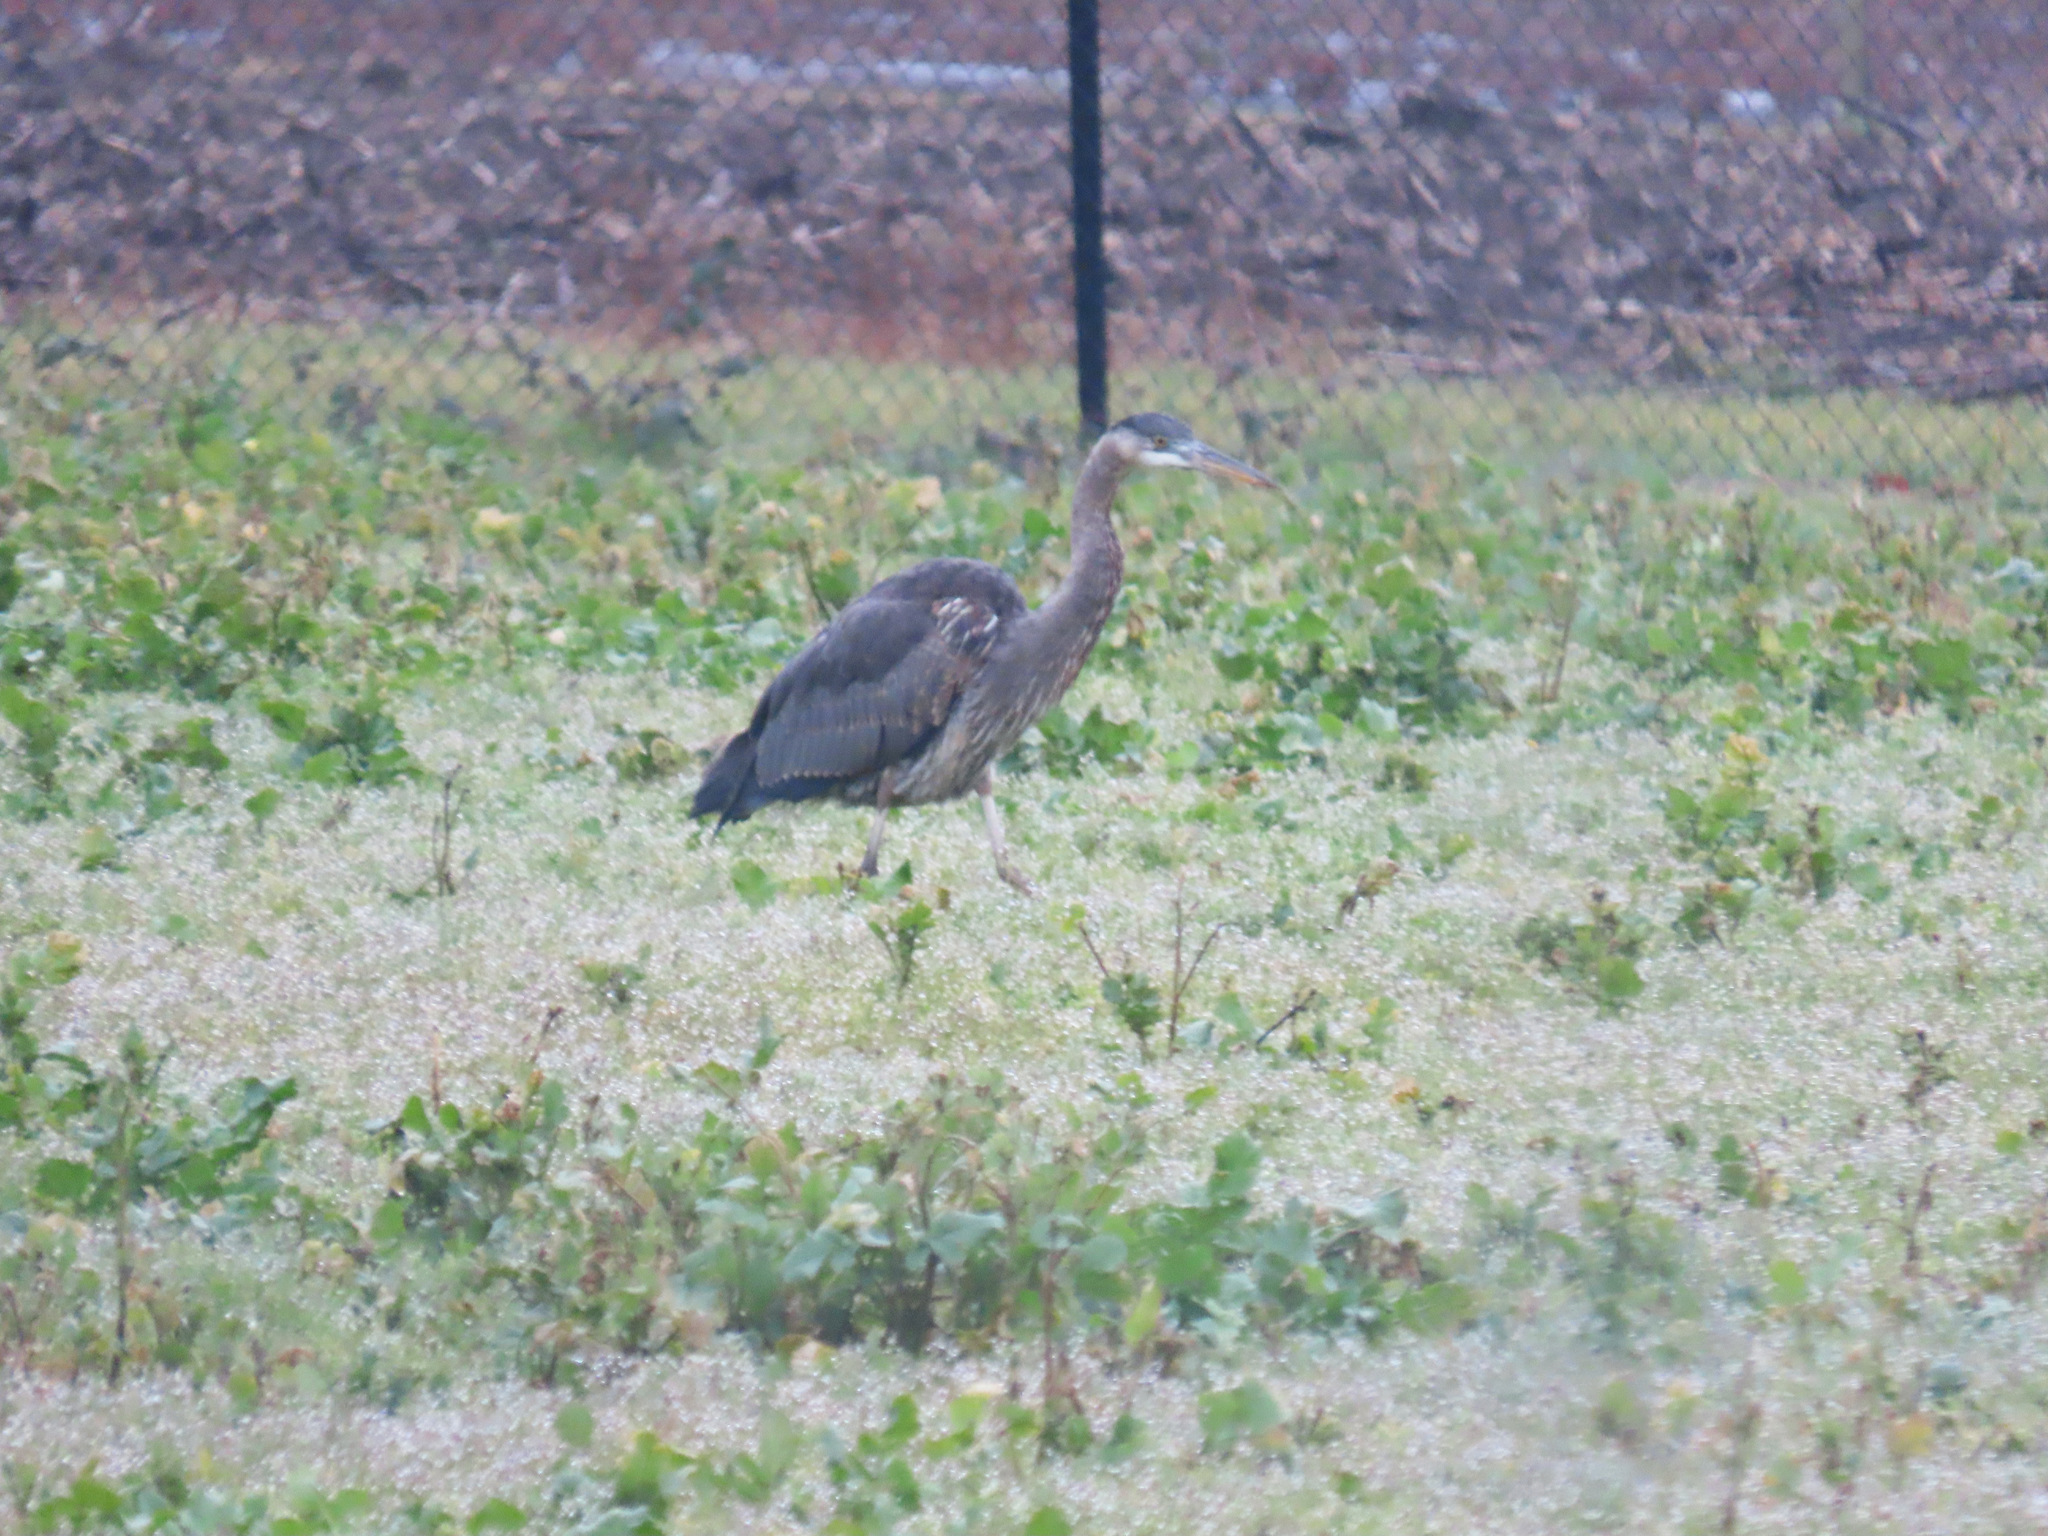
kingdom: Animalia
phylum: Chordata
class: Aves
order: Pelecaniformes
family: Ardeidae
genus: Ardea
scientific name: Ardea herodias
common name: Great blue heron
